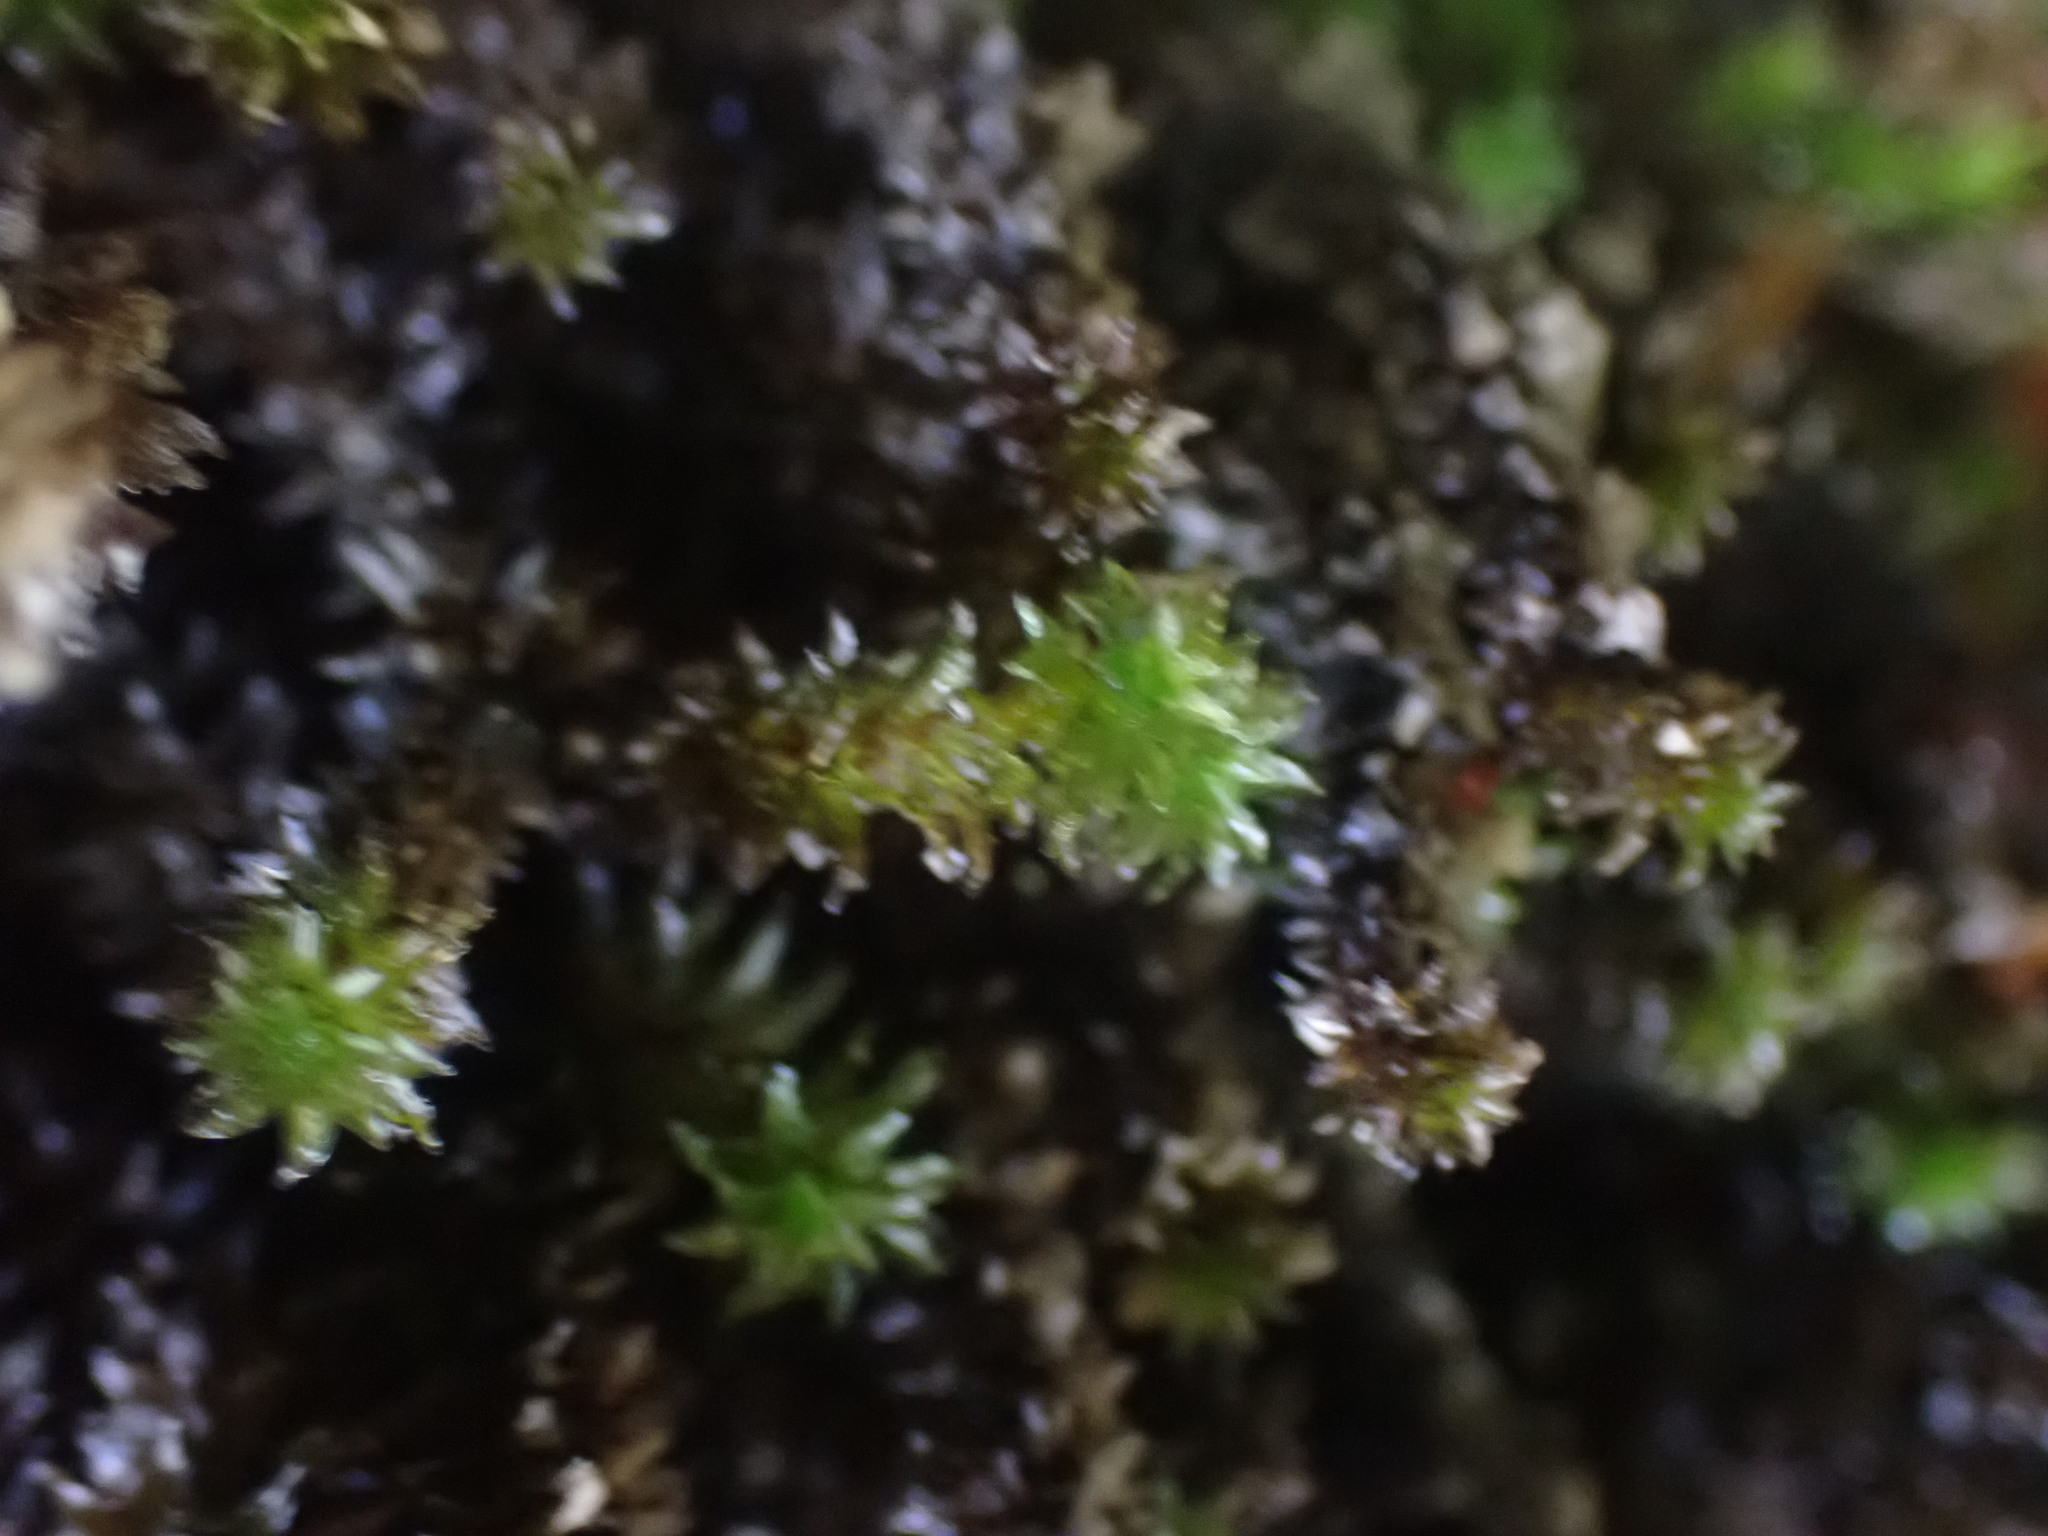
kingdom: Plantae
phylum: Bryophyta
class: Bryopsida
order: Scouleriales
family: Scouleriaceae
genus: Scouleria
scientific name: Scouleria aquatica
